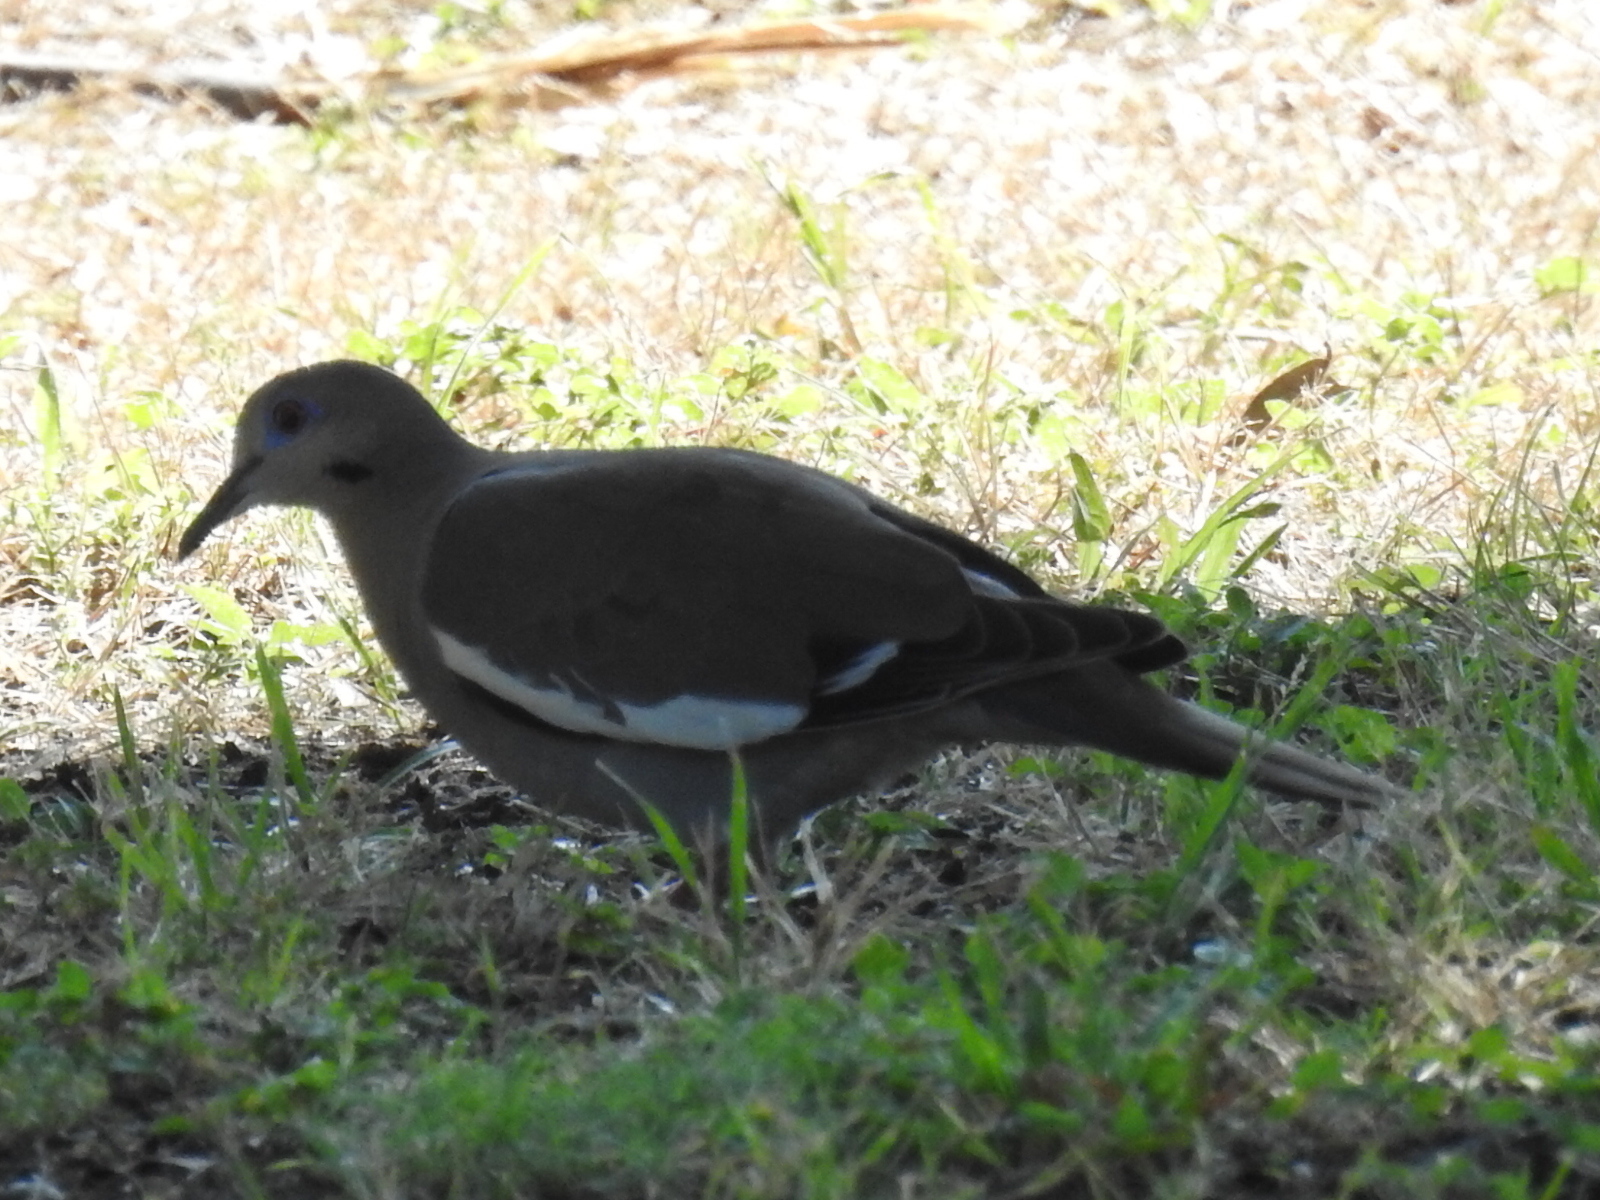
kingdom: Animalia
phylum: Chordata
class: Aves
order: Columbiformes
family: Columbidae
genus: Zenaida
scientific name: Zenaida asiatica
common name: White-winged dove
